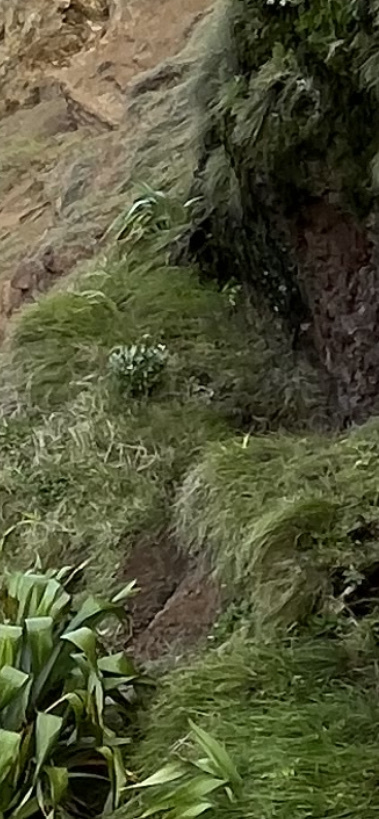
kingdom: Plantae
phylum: Tracheophyta
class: Magnoliopsida
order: Asterales
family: Asteraceae
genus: Olearia
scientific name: Olearia traversiorum
